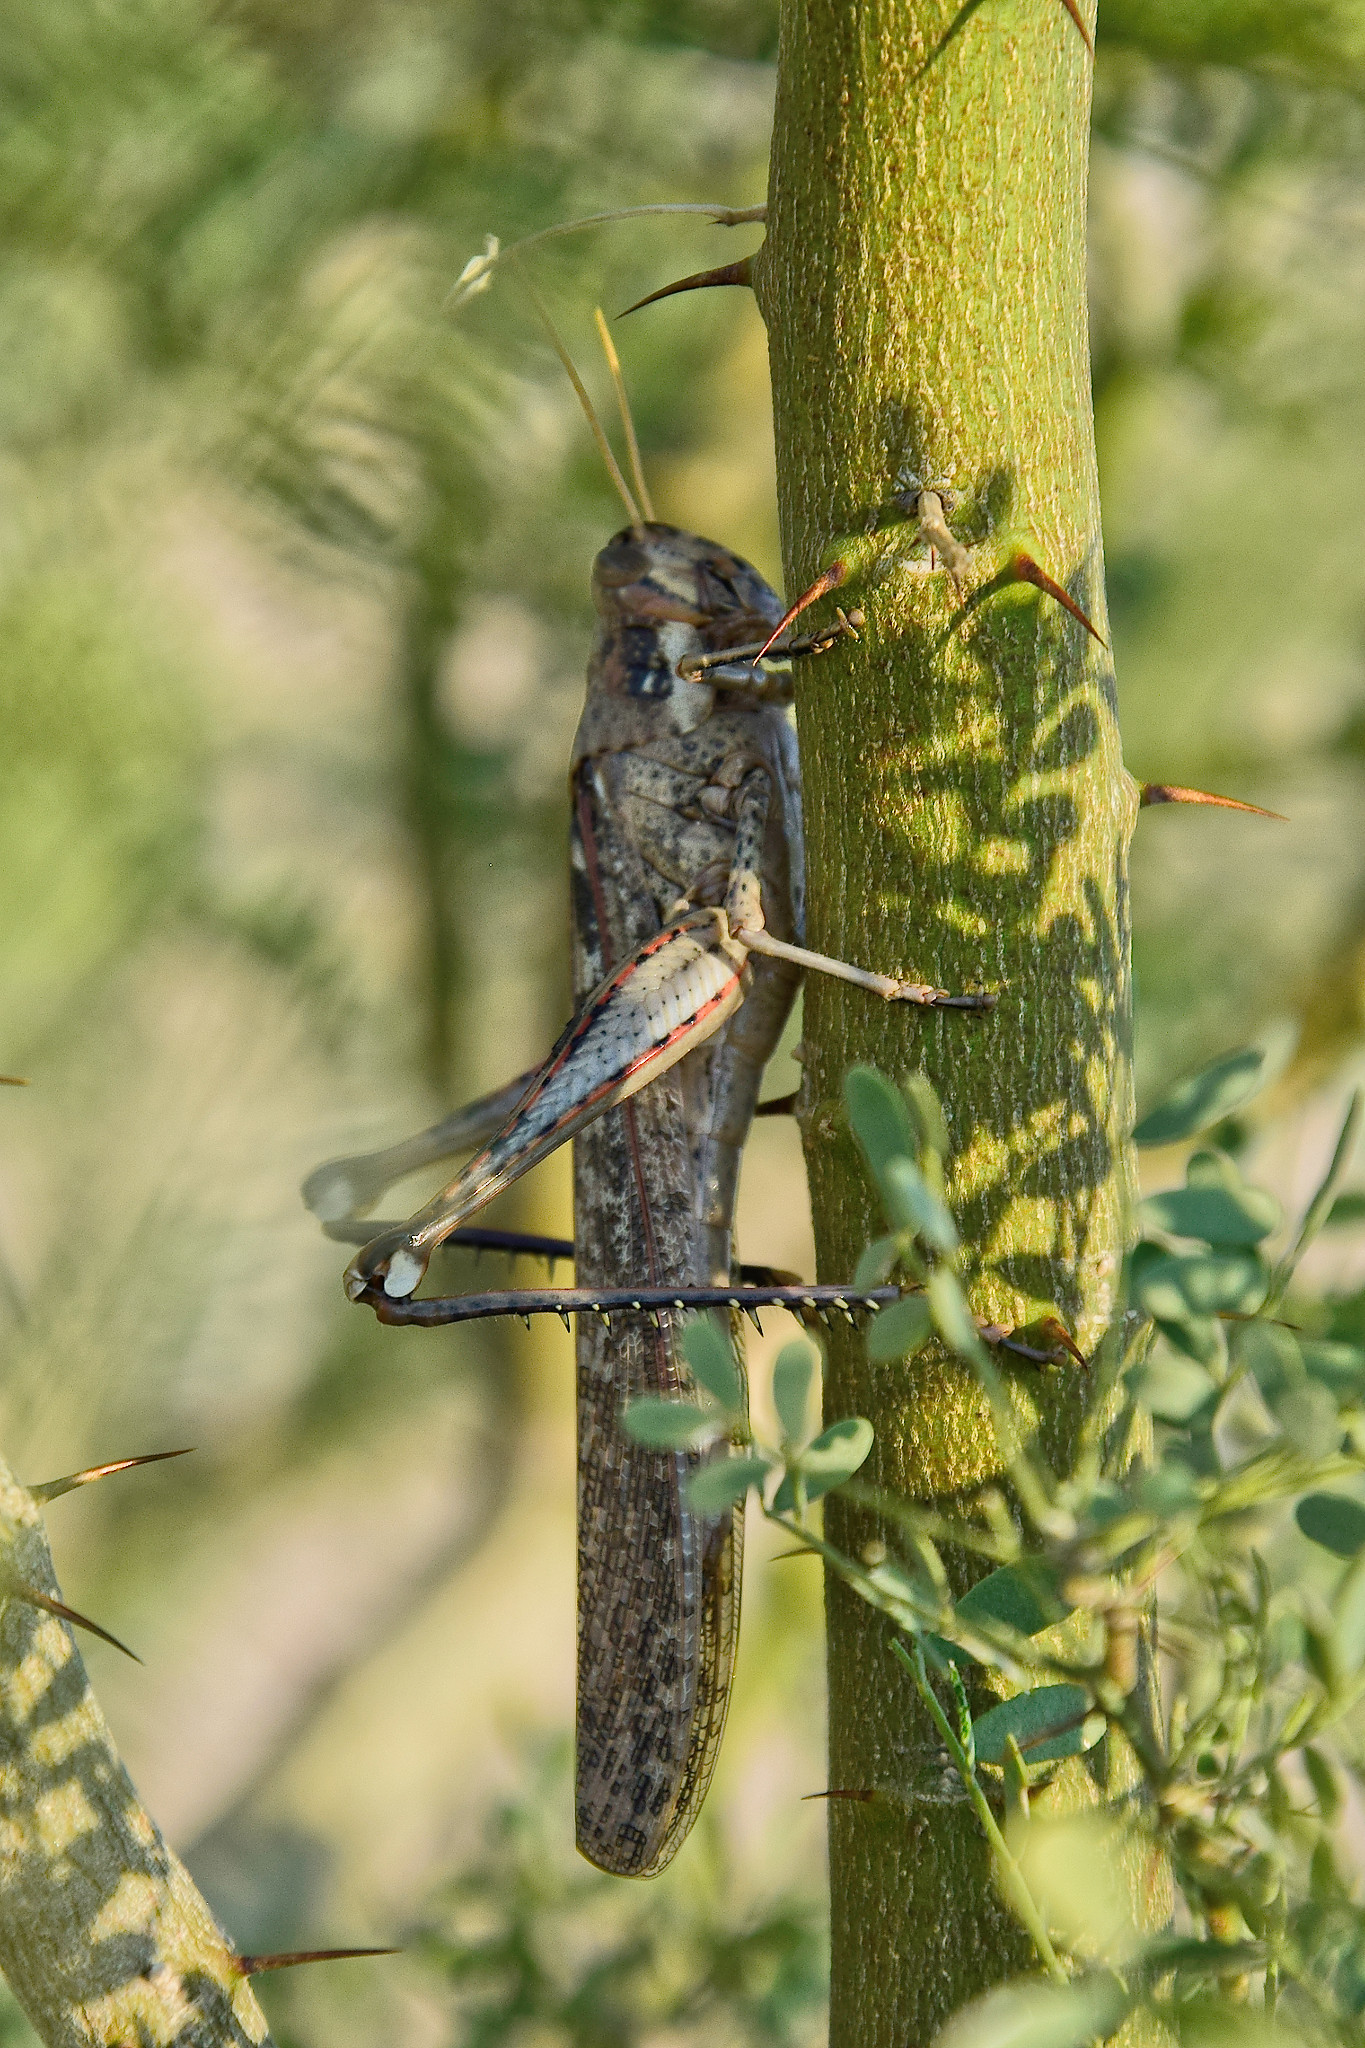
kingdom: Animalia
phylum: Arthropoda
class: Insecta
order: Orthoptera
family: Acrididae
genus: Schistocerca
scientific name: Schistocerca nitens
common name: Vagrant grasshopper
